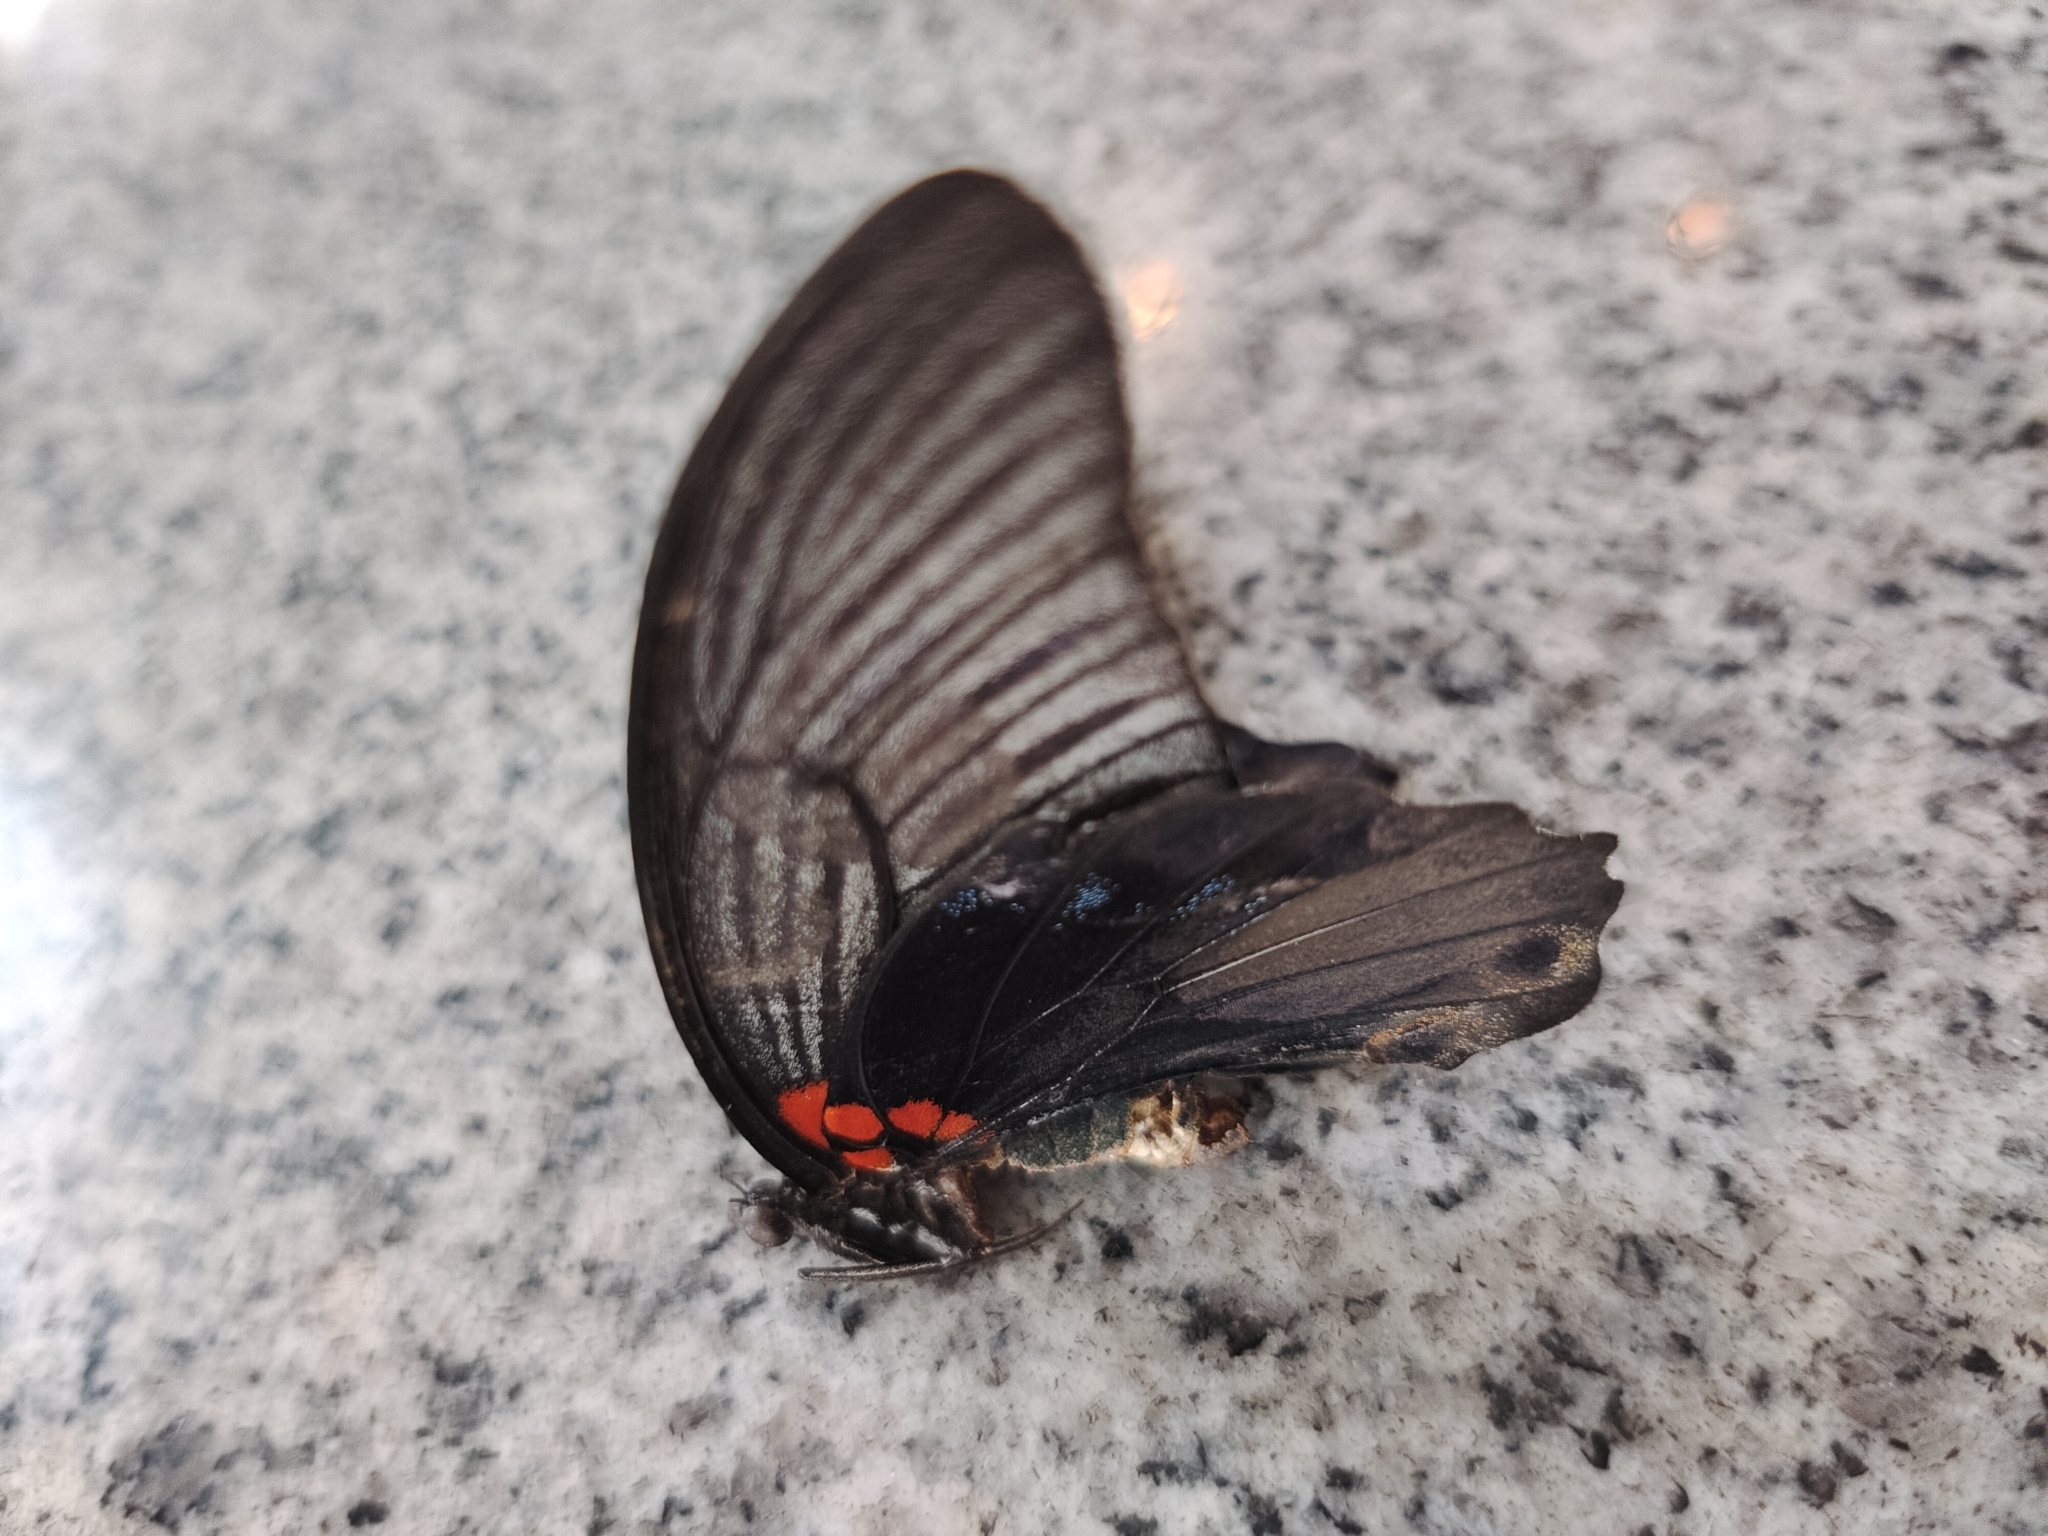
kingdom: Animalia
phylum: Arthropoda
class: Insecta
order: Lepidoptera
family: Papilionidae
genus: Papilio
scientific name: Papilio memnon
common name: Great mormon
